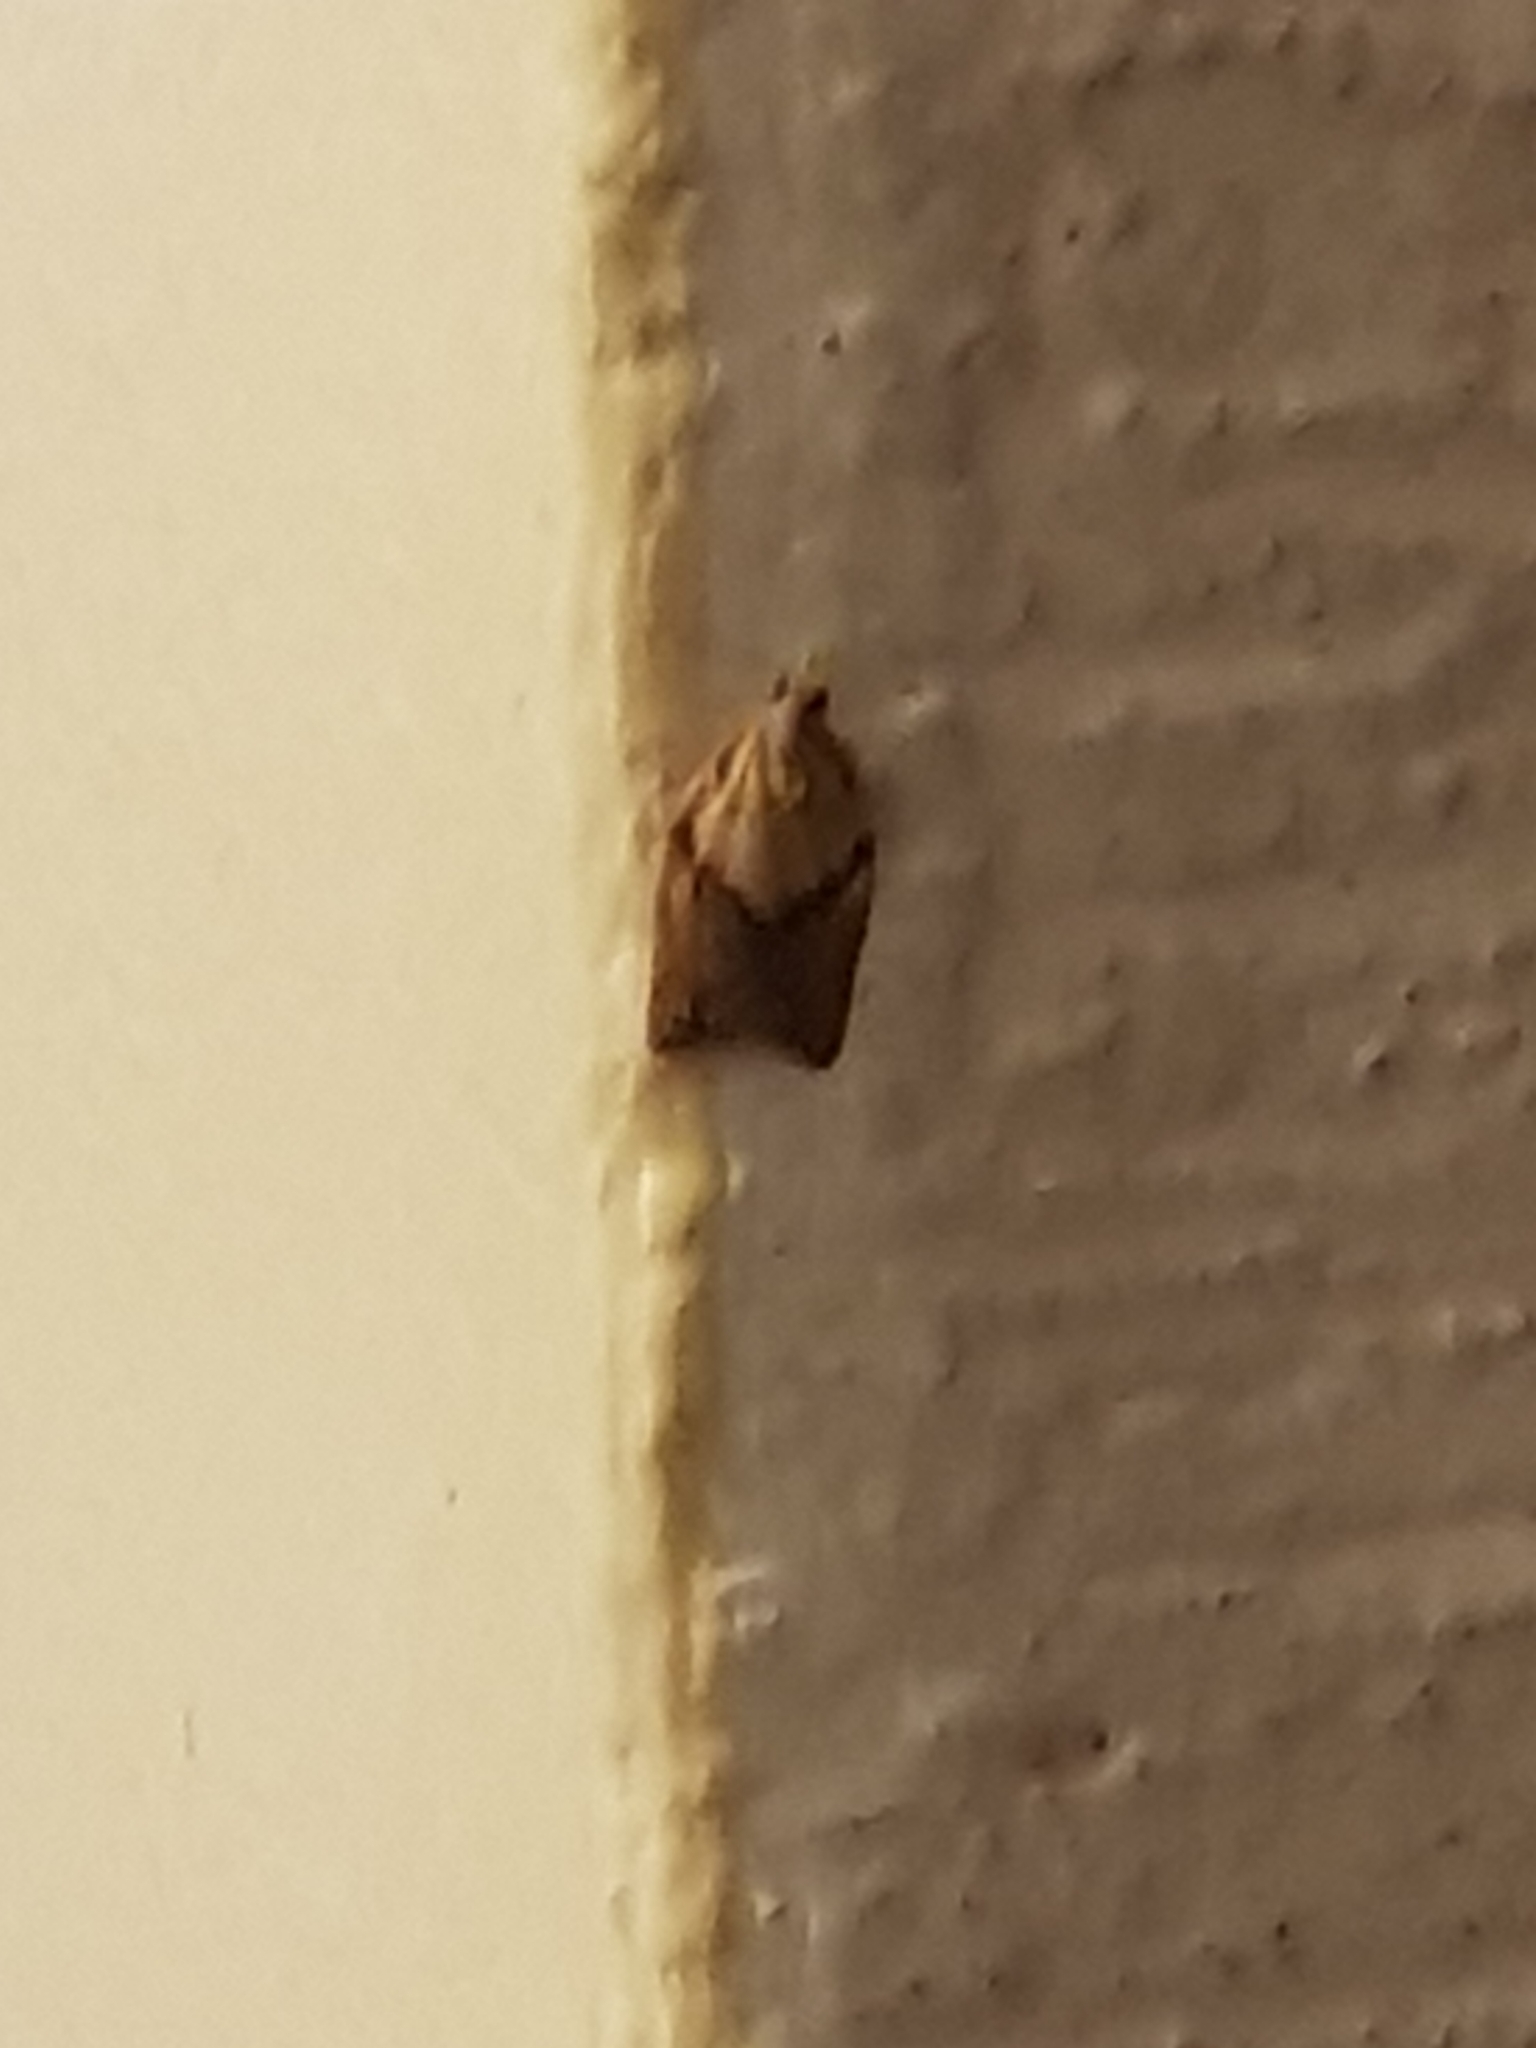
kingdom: Animalia
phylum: Arthropoda
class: Insecta
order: Lepidoptera
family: Tortricidae
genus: Epiphyas
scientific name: Epiphyas postvittana
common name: Light brown apple moth
